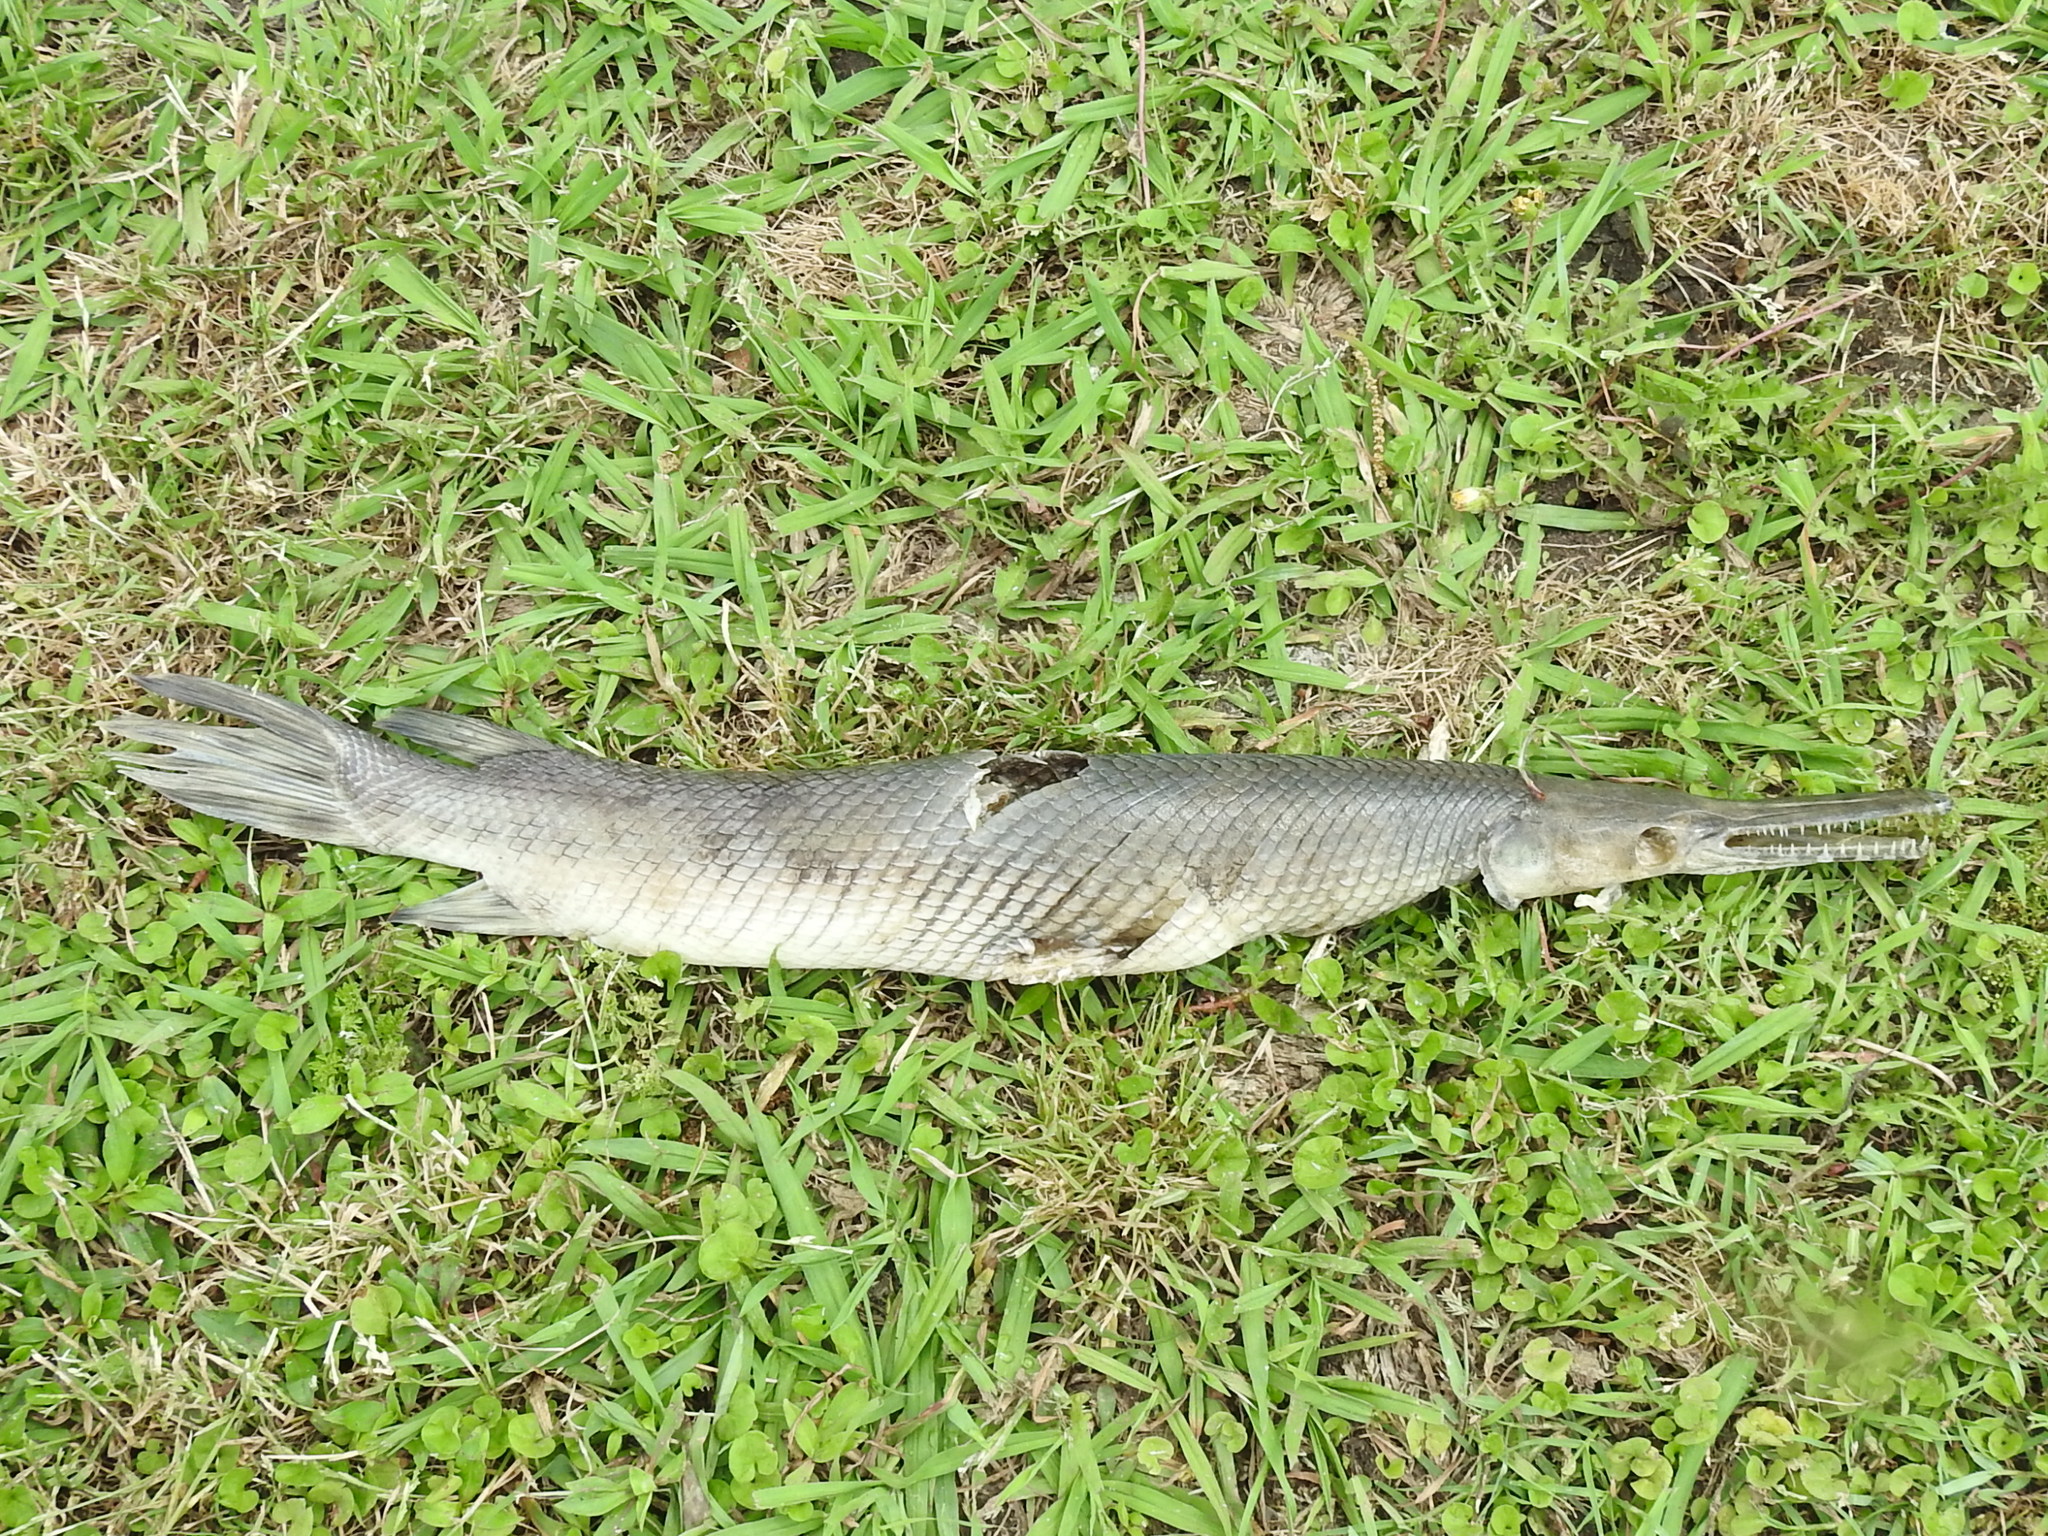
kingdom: Animalia
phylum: Chordata
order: Lepisosteiformes
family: Lepisosteidae
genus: Lepisosteus
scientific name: Lepisosteus oculatus
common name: Spotted gar
